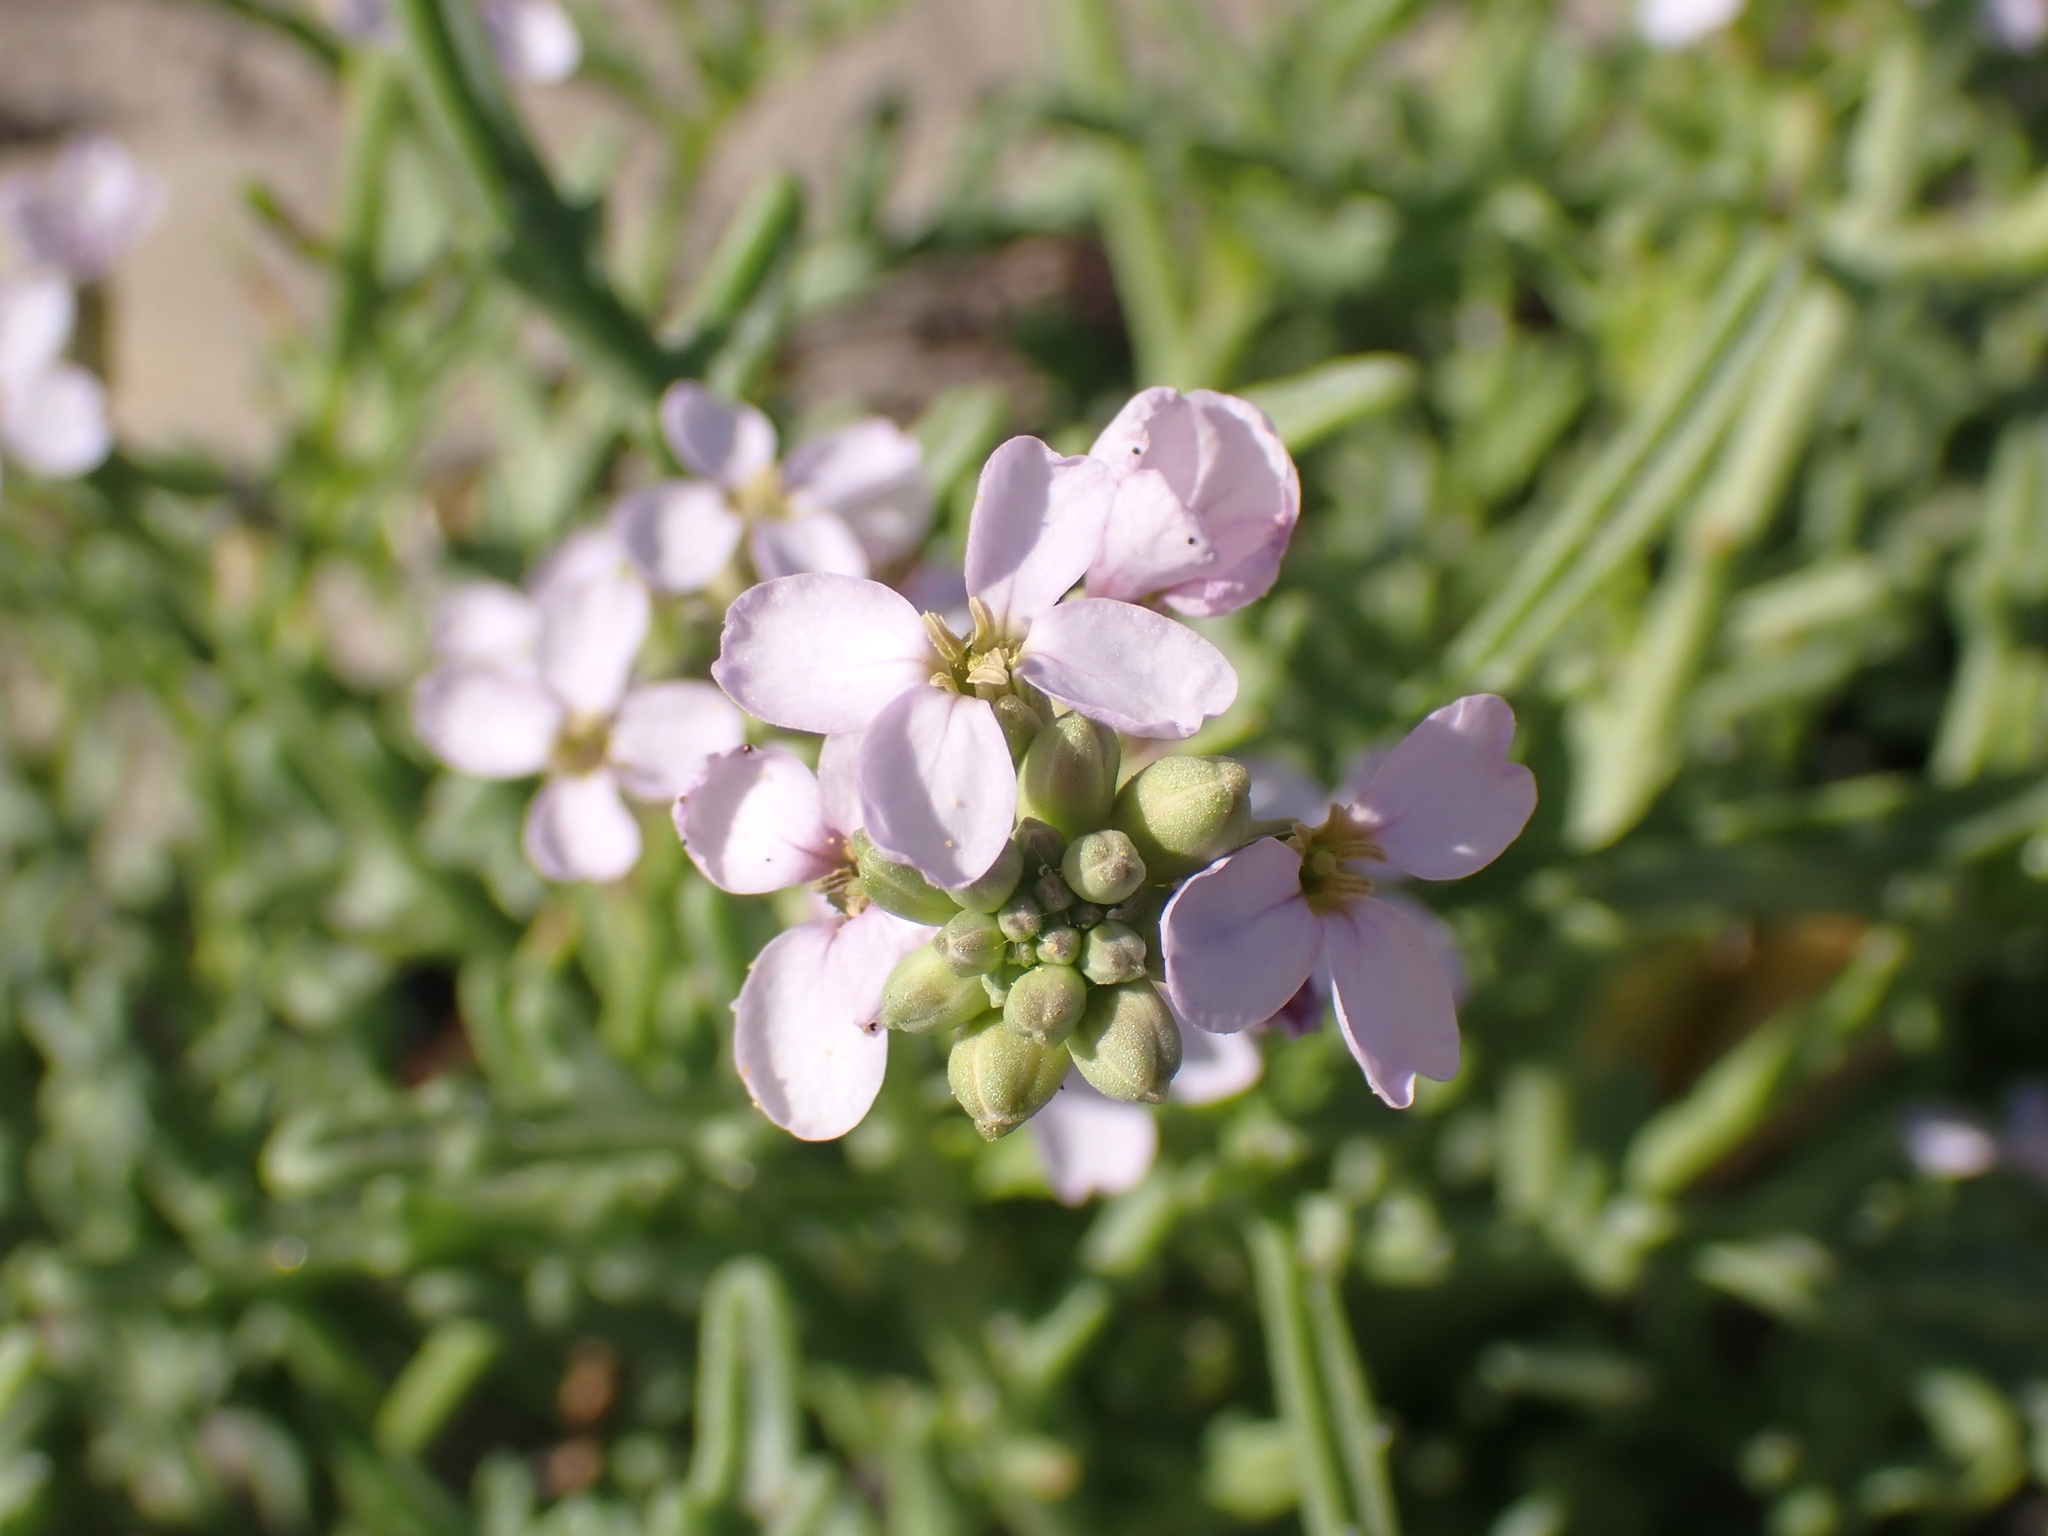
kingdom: Plantae
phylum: Tracheophyta
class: Magnoliopsida
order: Brassicales
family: Brassicaceae
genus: Cakile
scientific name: Cakile maritima
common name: Sea rocket
